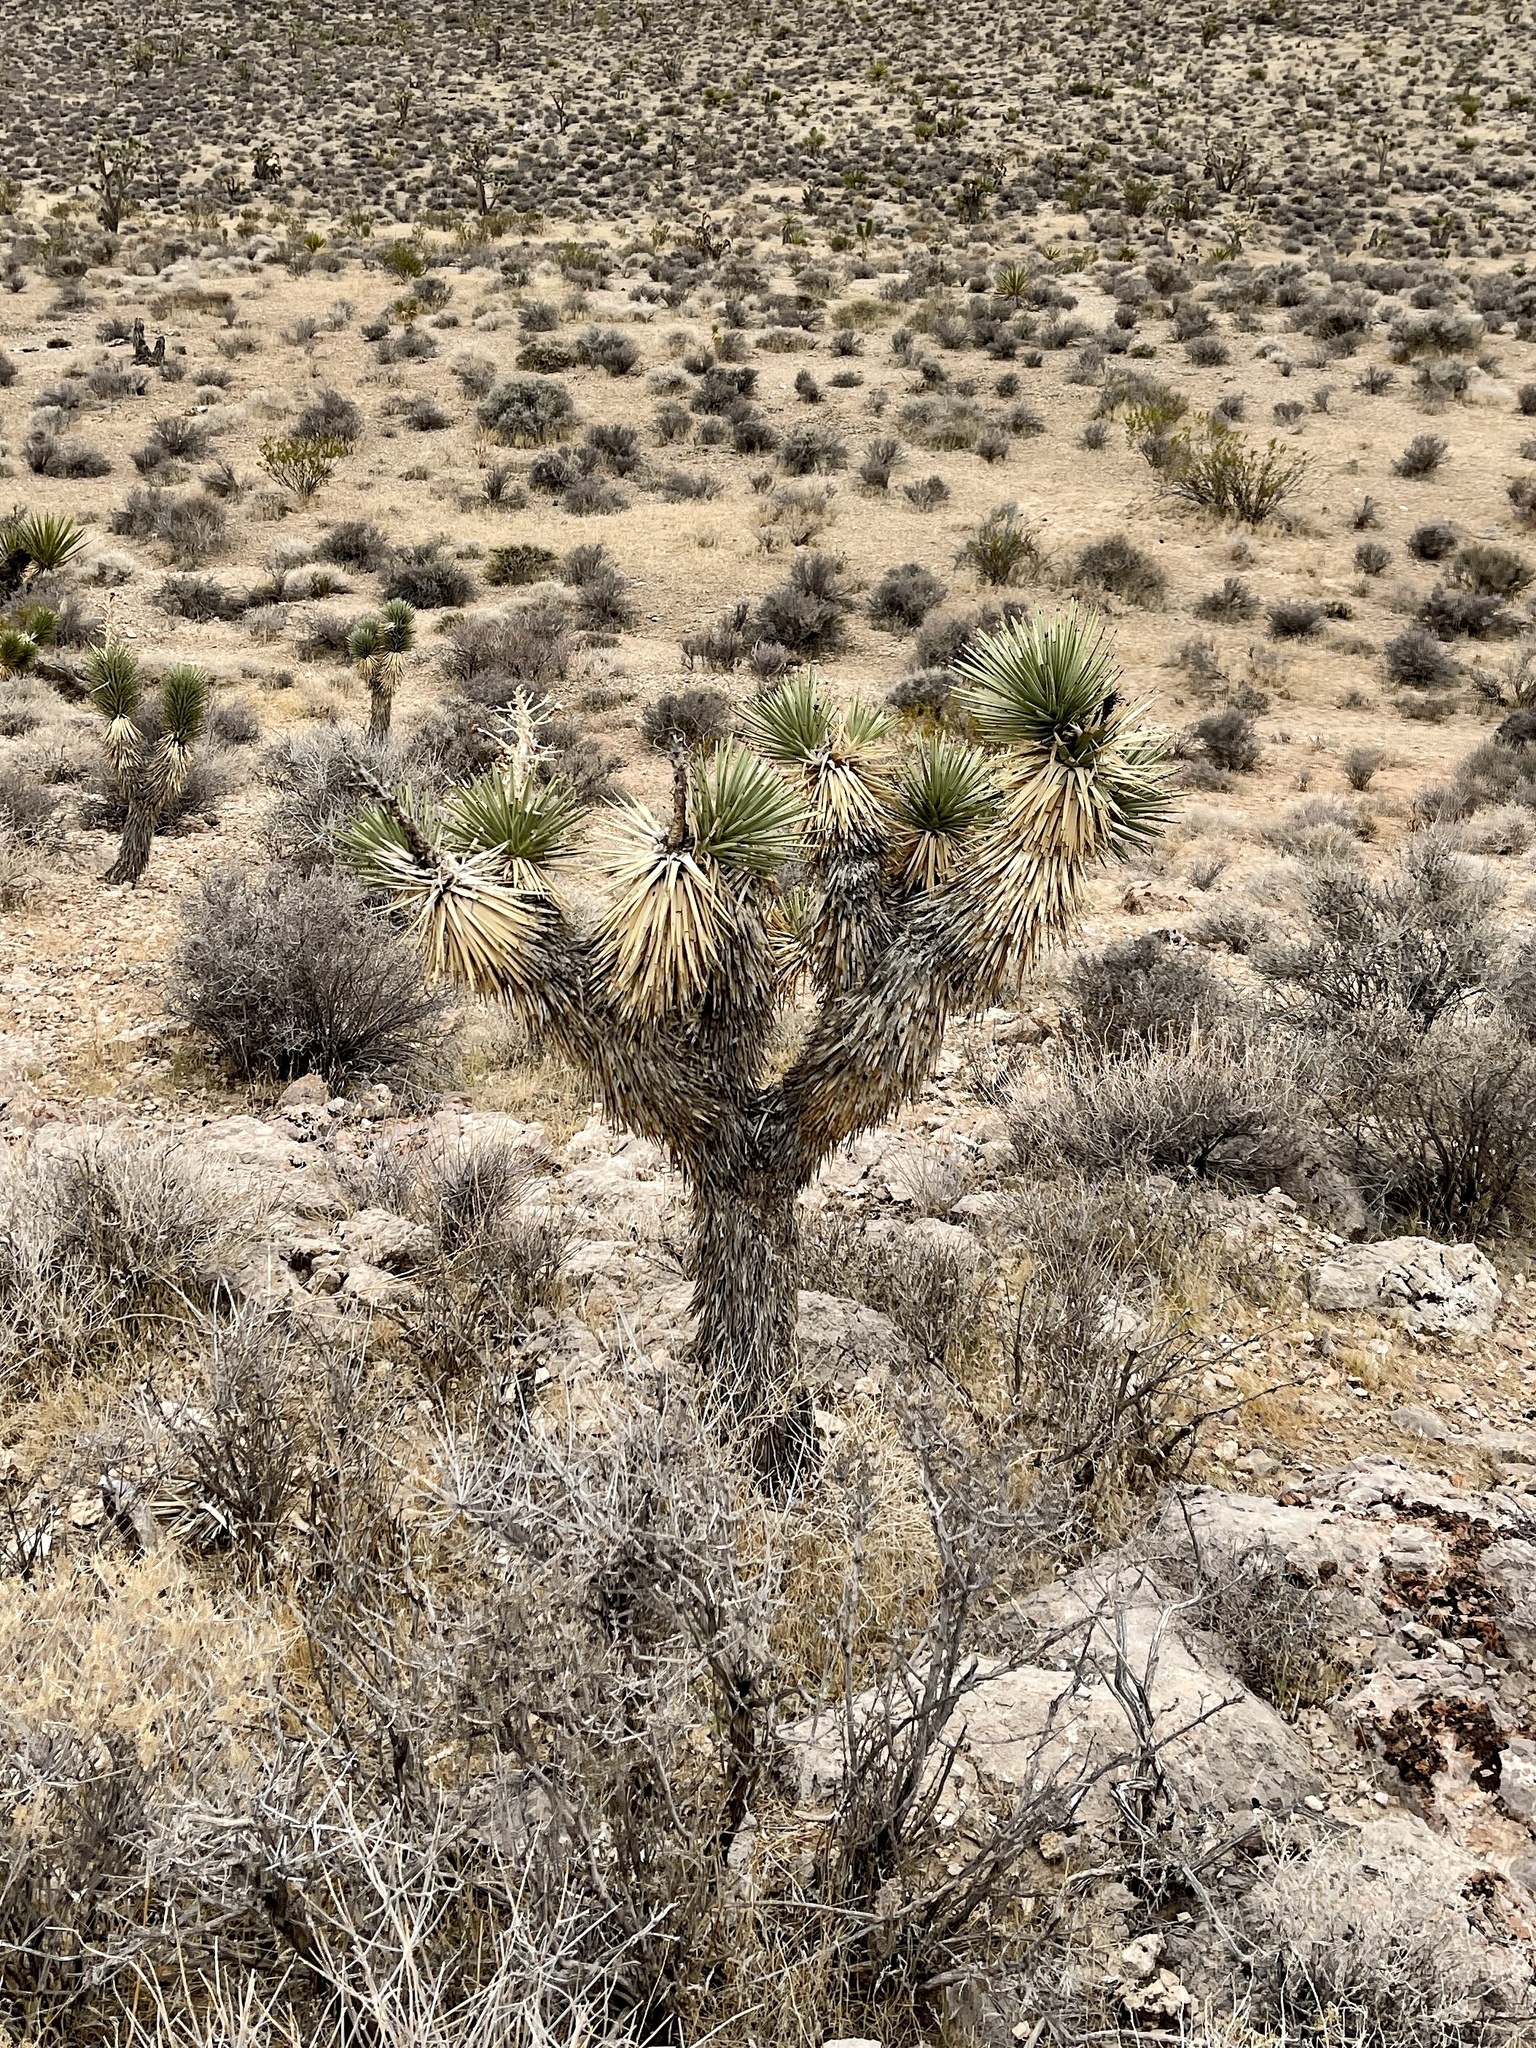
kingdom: Plantae
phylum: Tracheophyta
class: Liliopsida
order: Asparagales
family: Asparagaceae
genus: Yucca
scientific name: Yucca brevifolia
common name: Joshua tree
